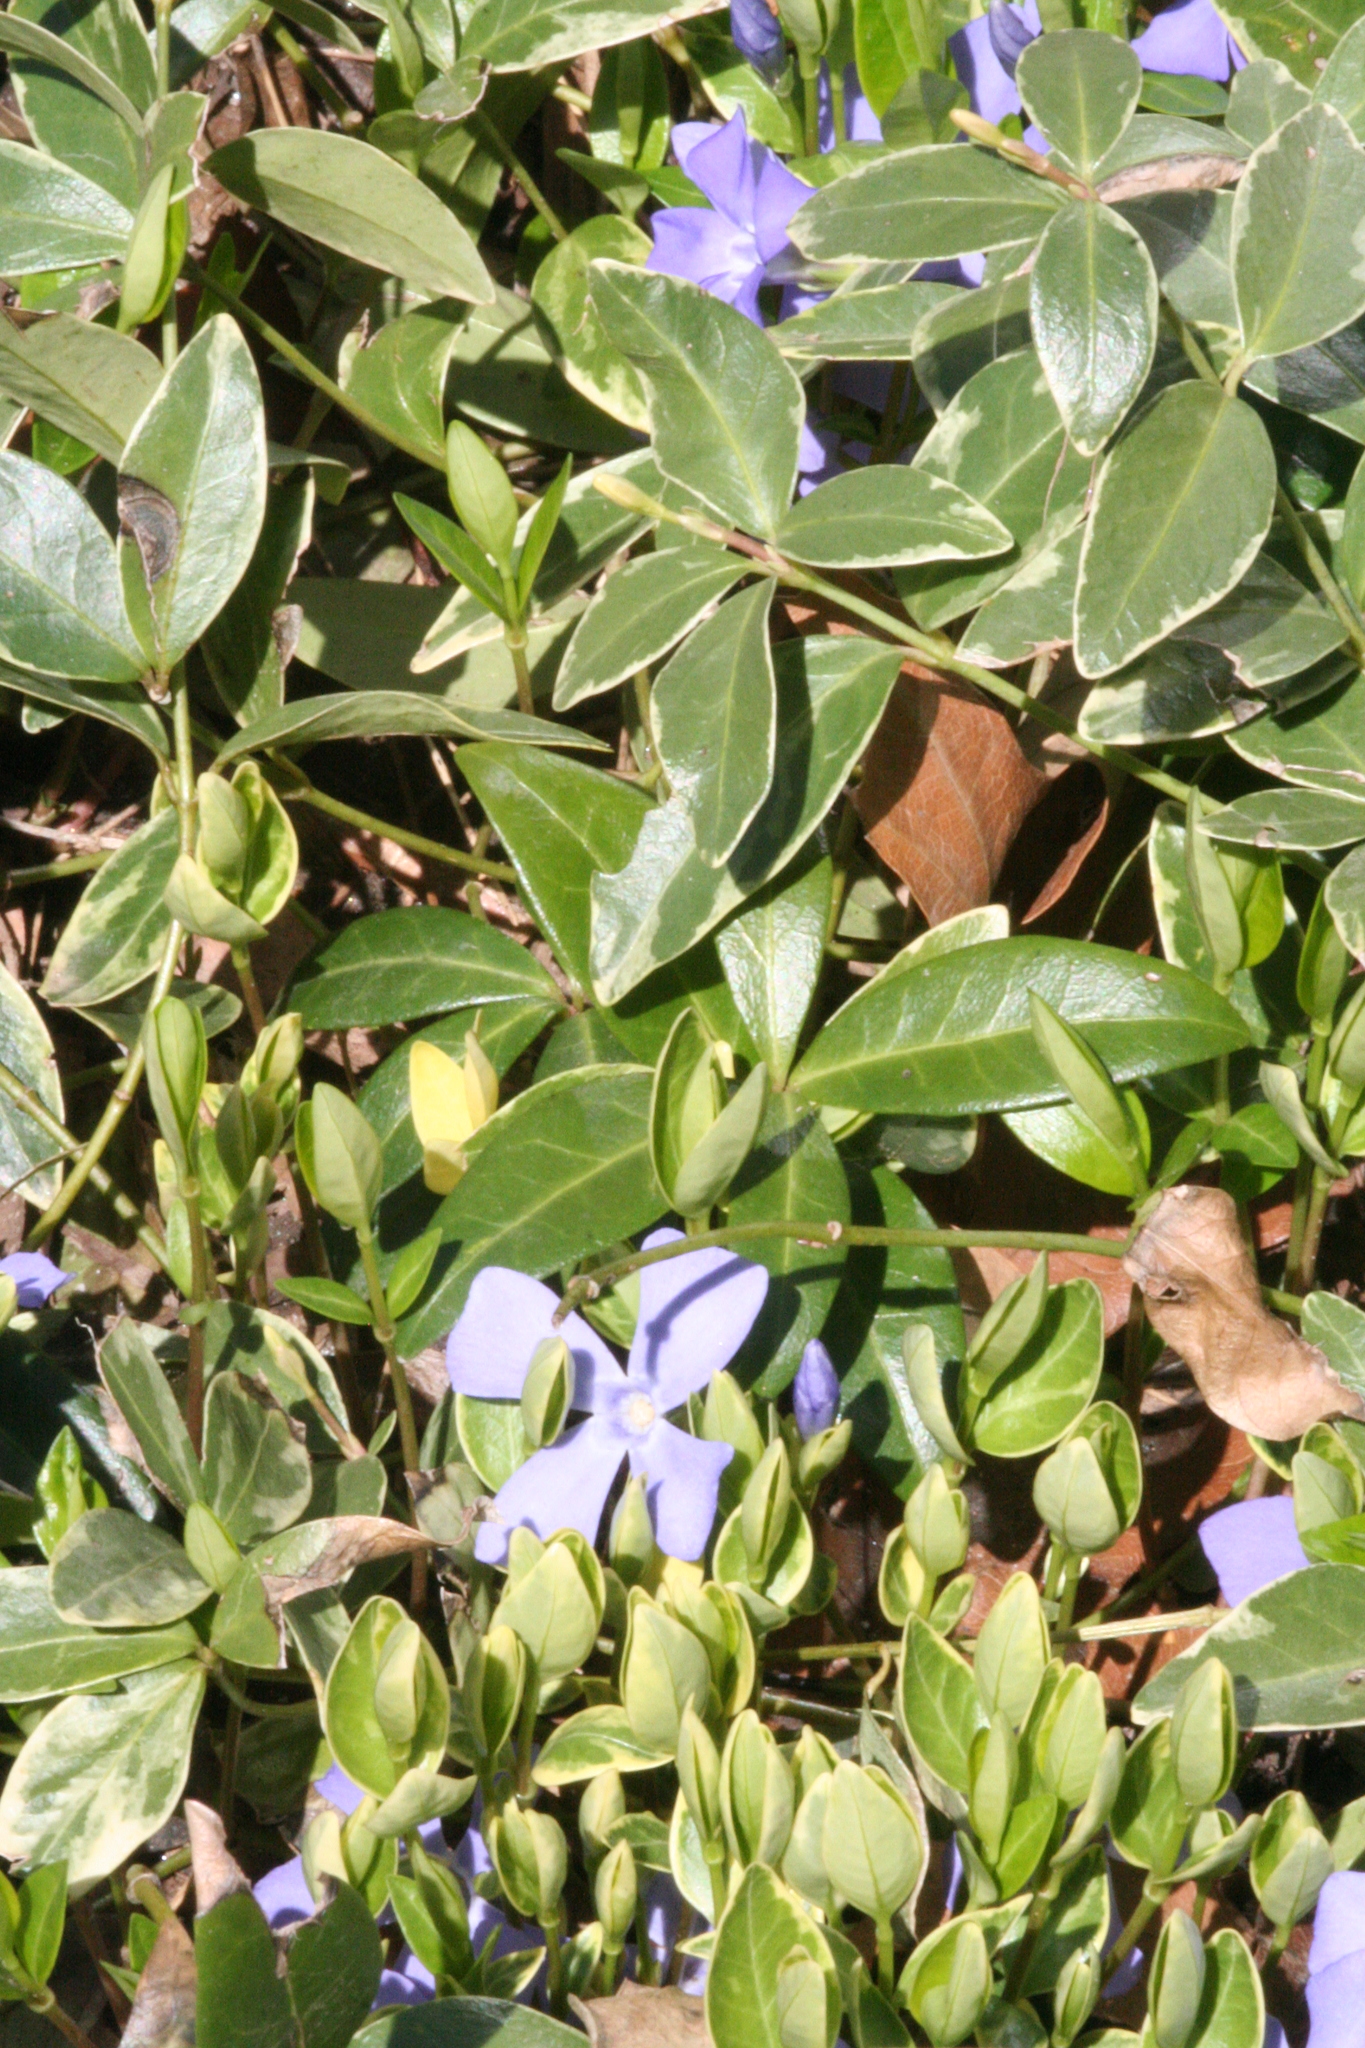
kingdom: Plantae
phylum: Tracheophyta
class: Magnoliopsida
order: Gentianales
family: Apocynaceae
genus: Vinca
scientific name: Vinca minor
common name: Lesser periwinkle
